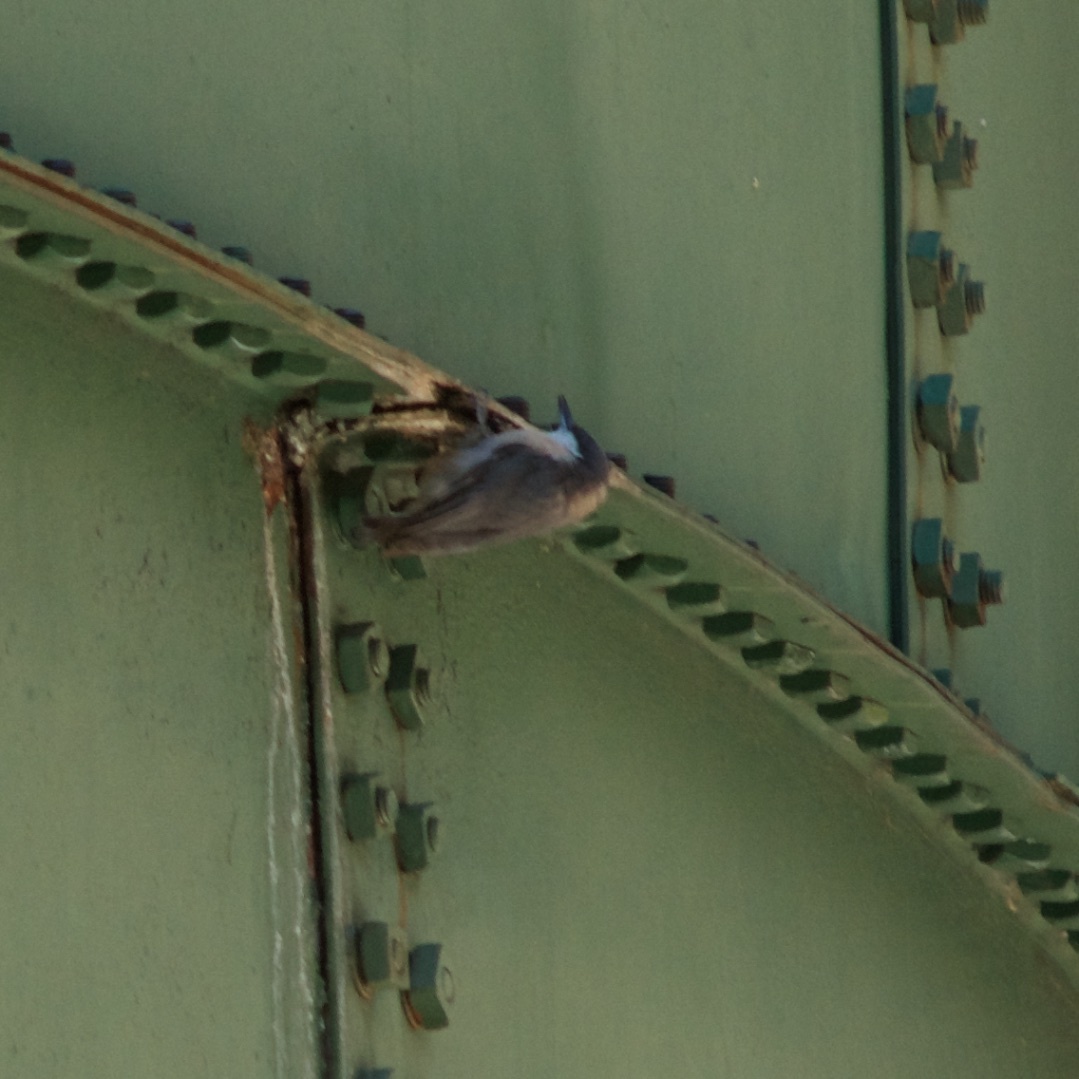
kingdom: Animalia
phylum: Chordata
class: Aves
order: Passeriformes
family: Sittidae
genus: Sitta
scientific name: Sitta pygmaea
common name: Pygmy nuthatch
